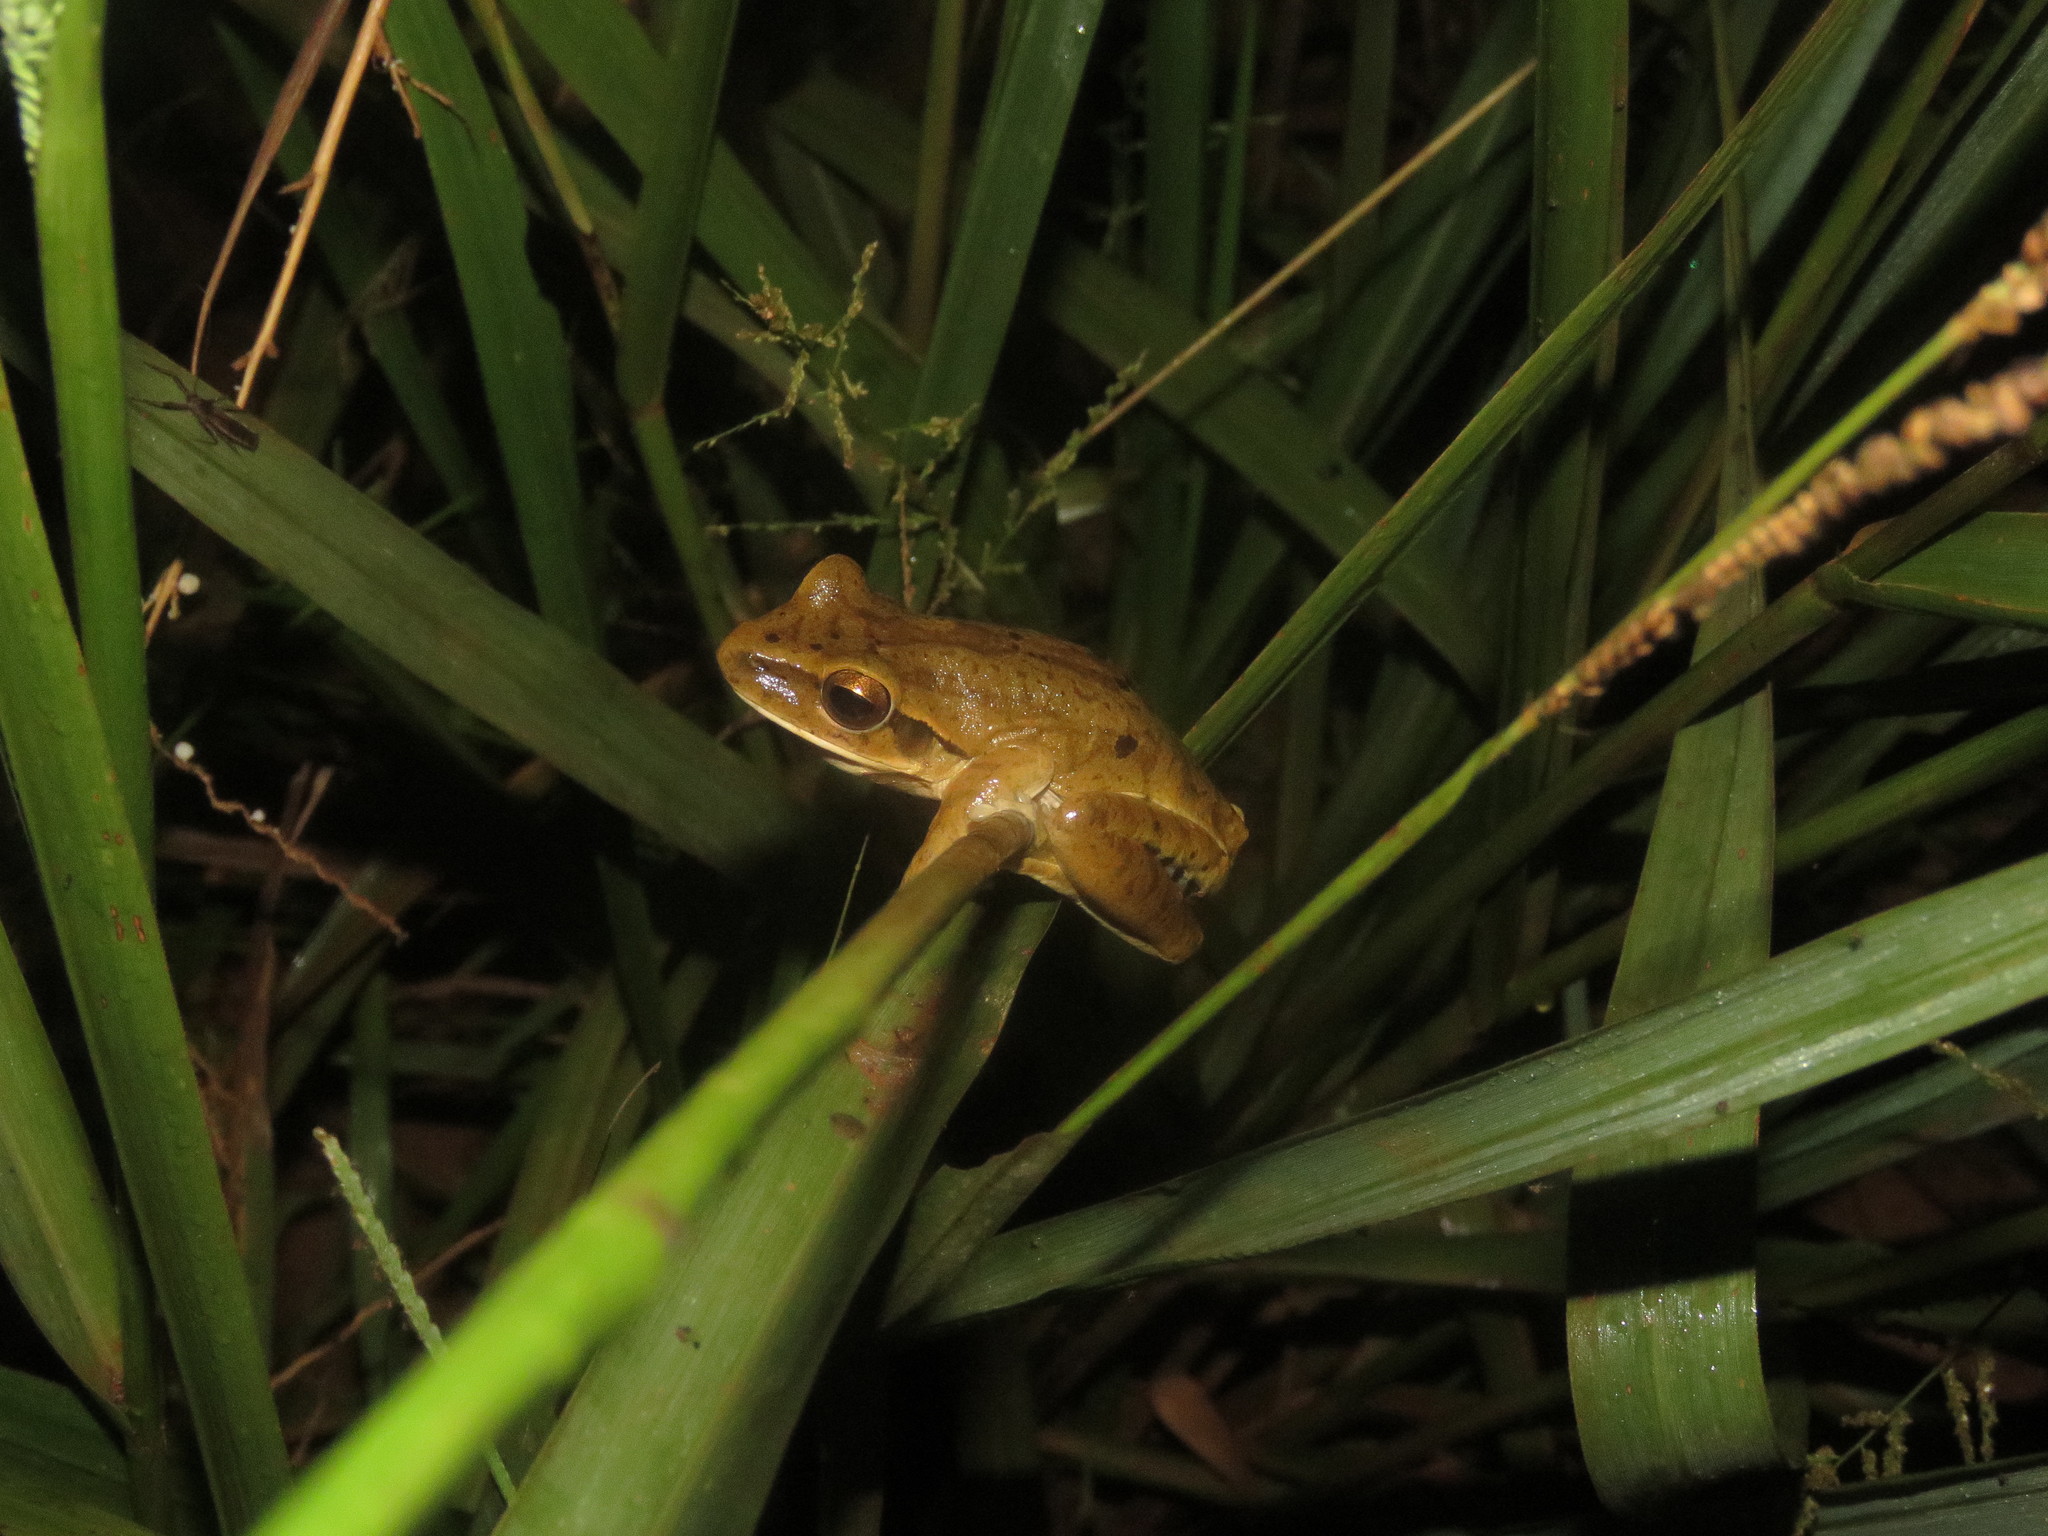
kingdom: Animalia
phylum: Chordata
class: Amphibia
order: Anura
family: Hylidae
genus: Boana
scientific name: Boana raniceps
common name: Chaco treefrog
